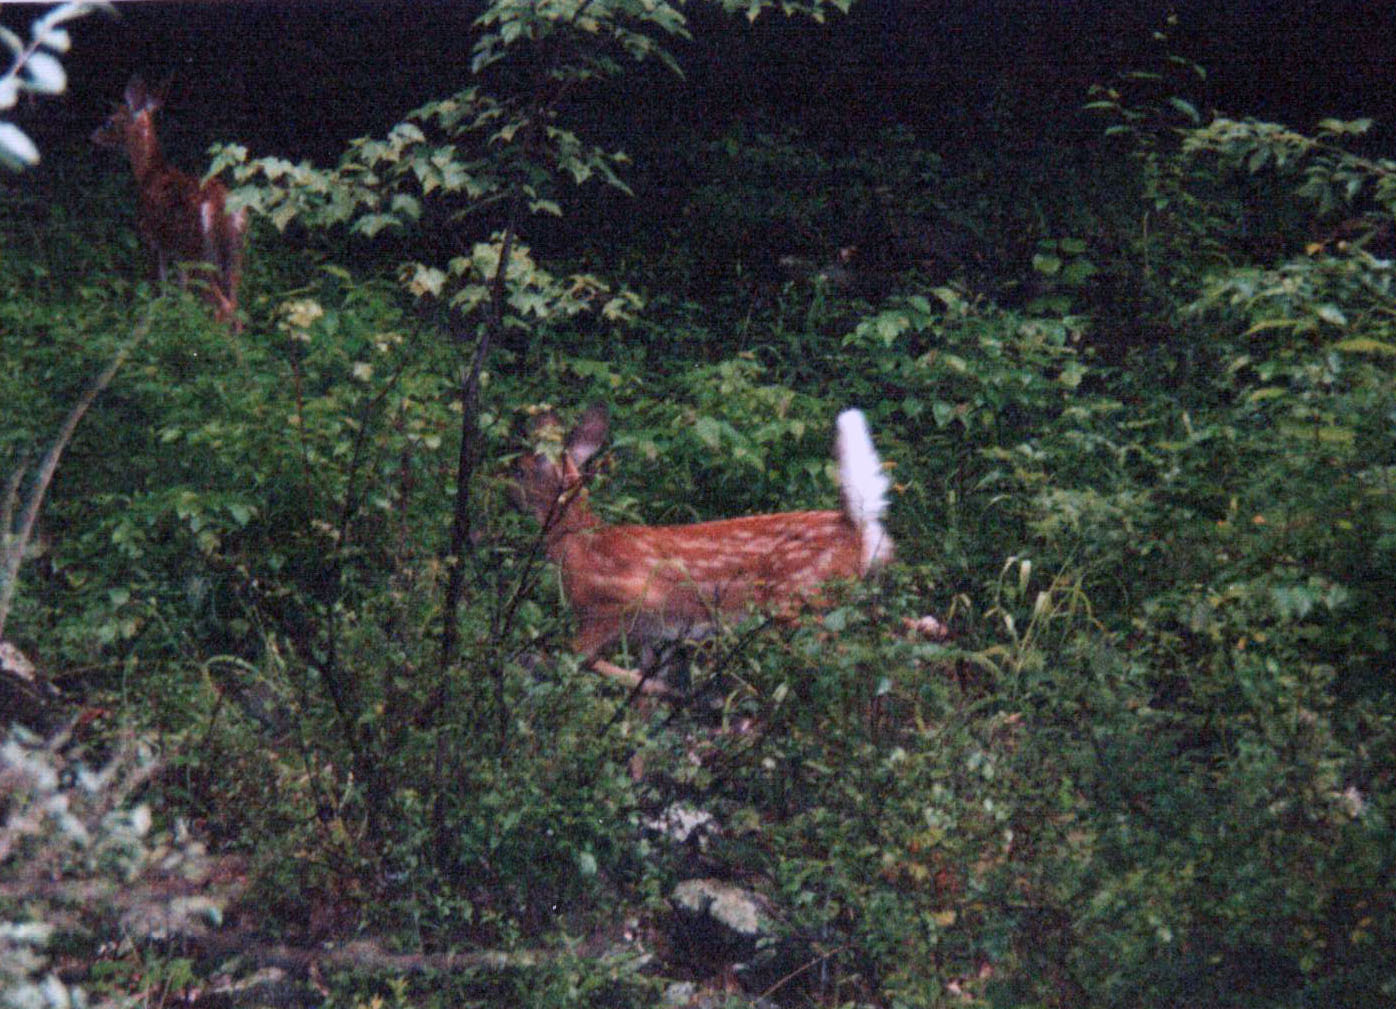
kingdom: Animalia
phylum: Chordata
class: Mammalia
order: Artiodactyla
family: Cervidae
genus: Odocoileus
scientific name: Odocoileus virginianus
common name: White-tailed deer
